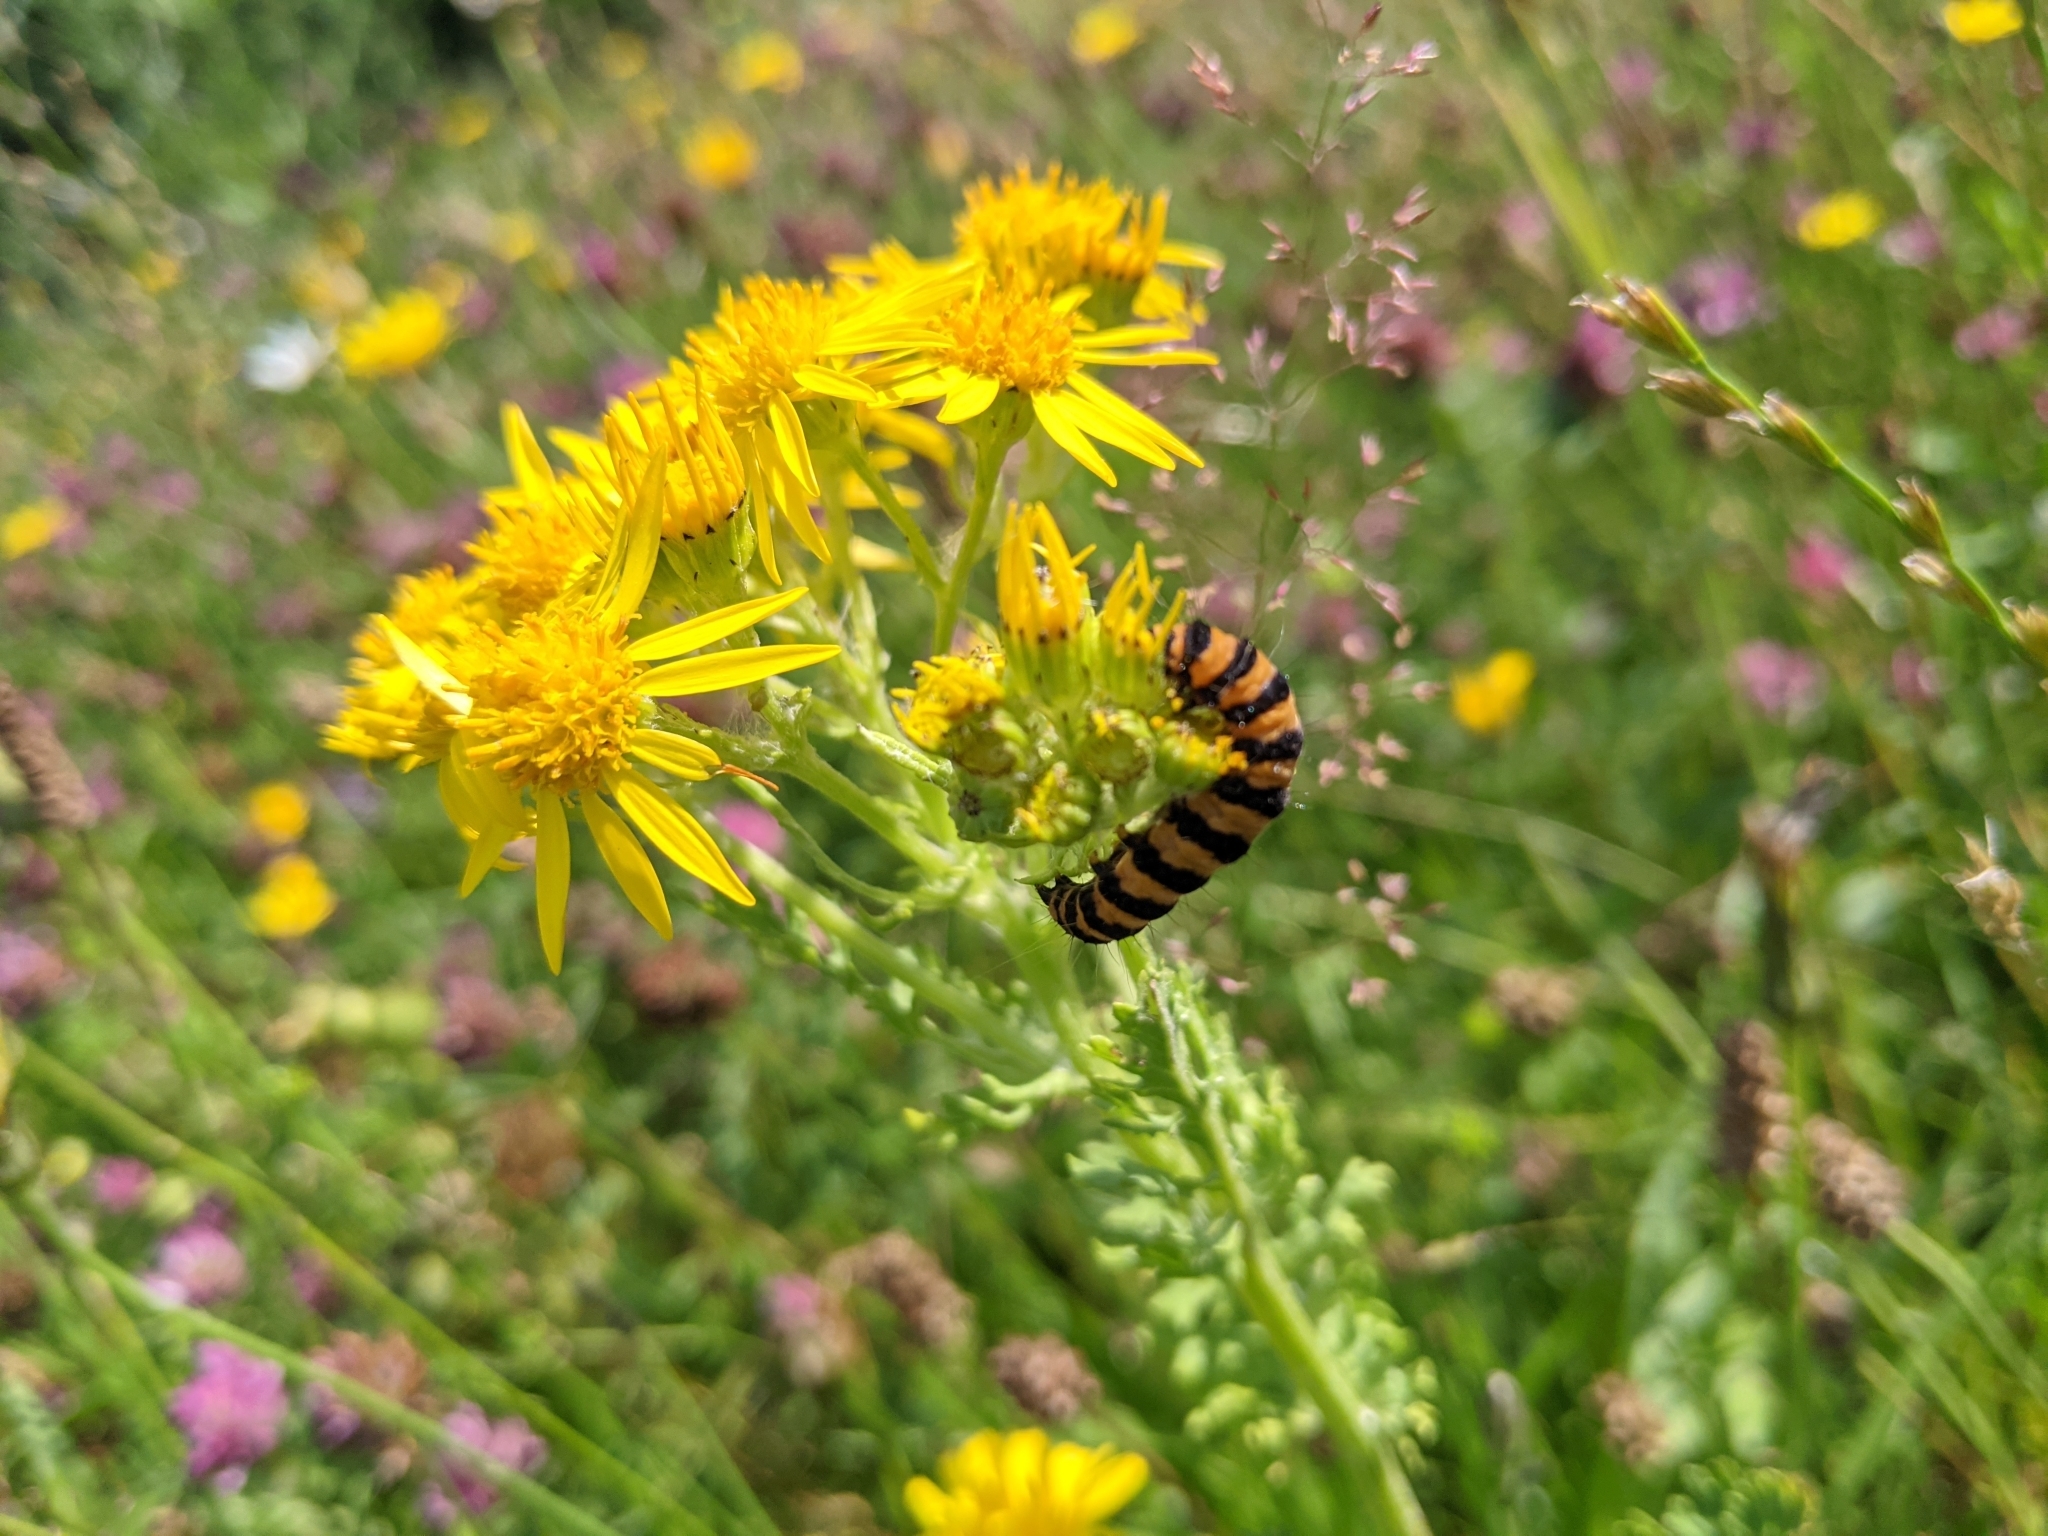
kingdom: Animalia
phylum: Arthropoda
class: Insecta
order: Lepidoptera
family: Erebidae
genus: Tyria
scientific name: Tyria jacobaeae
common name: Cinnabar
